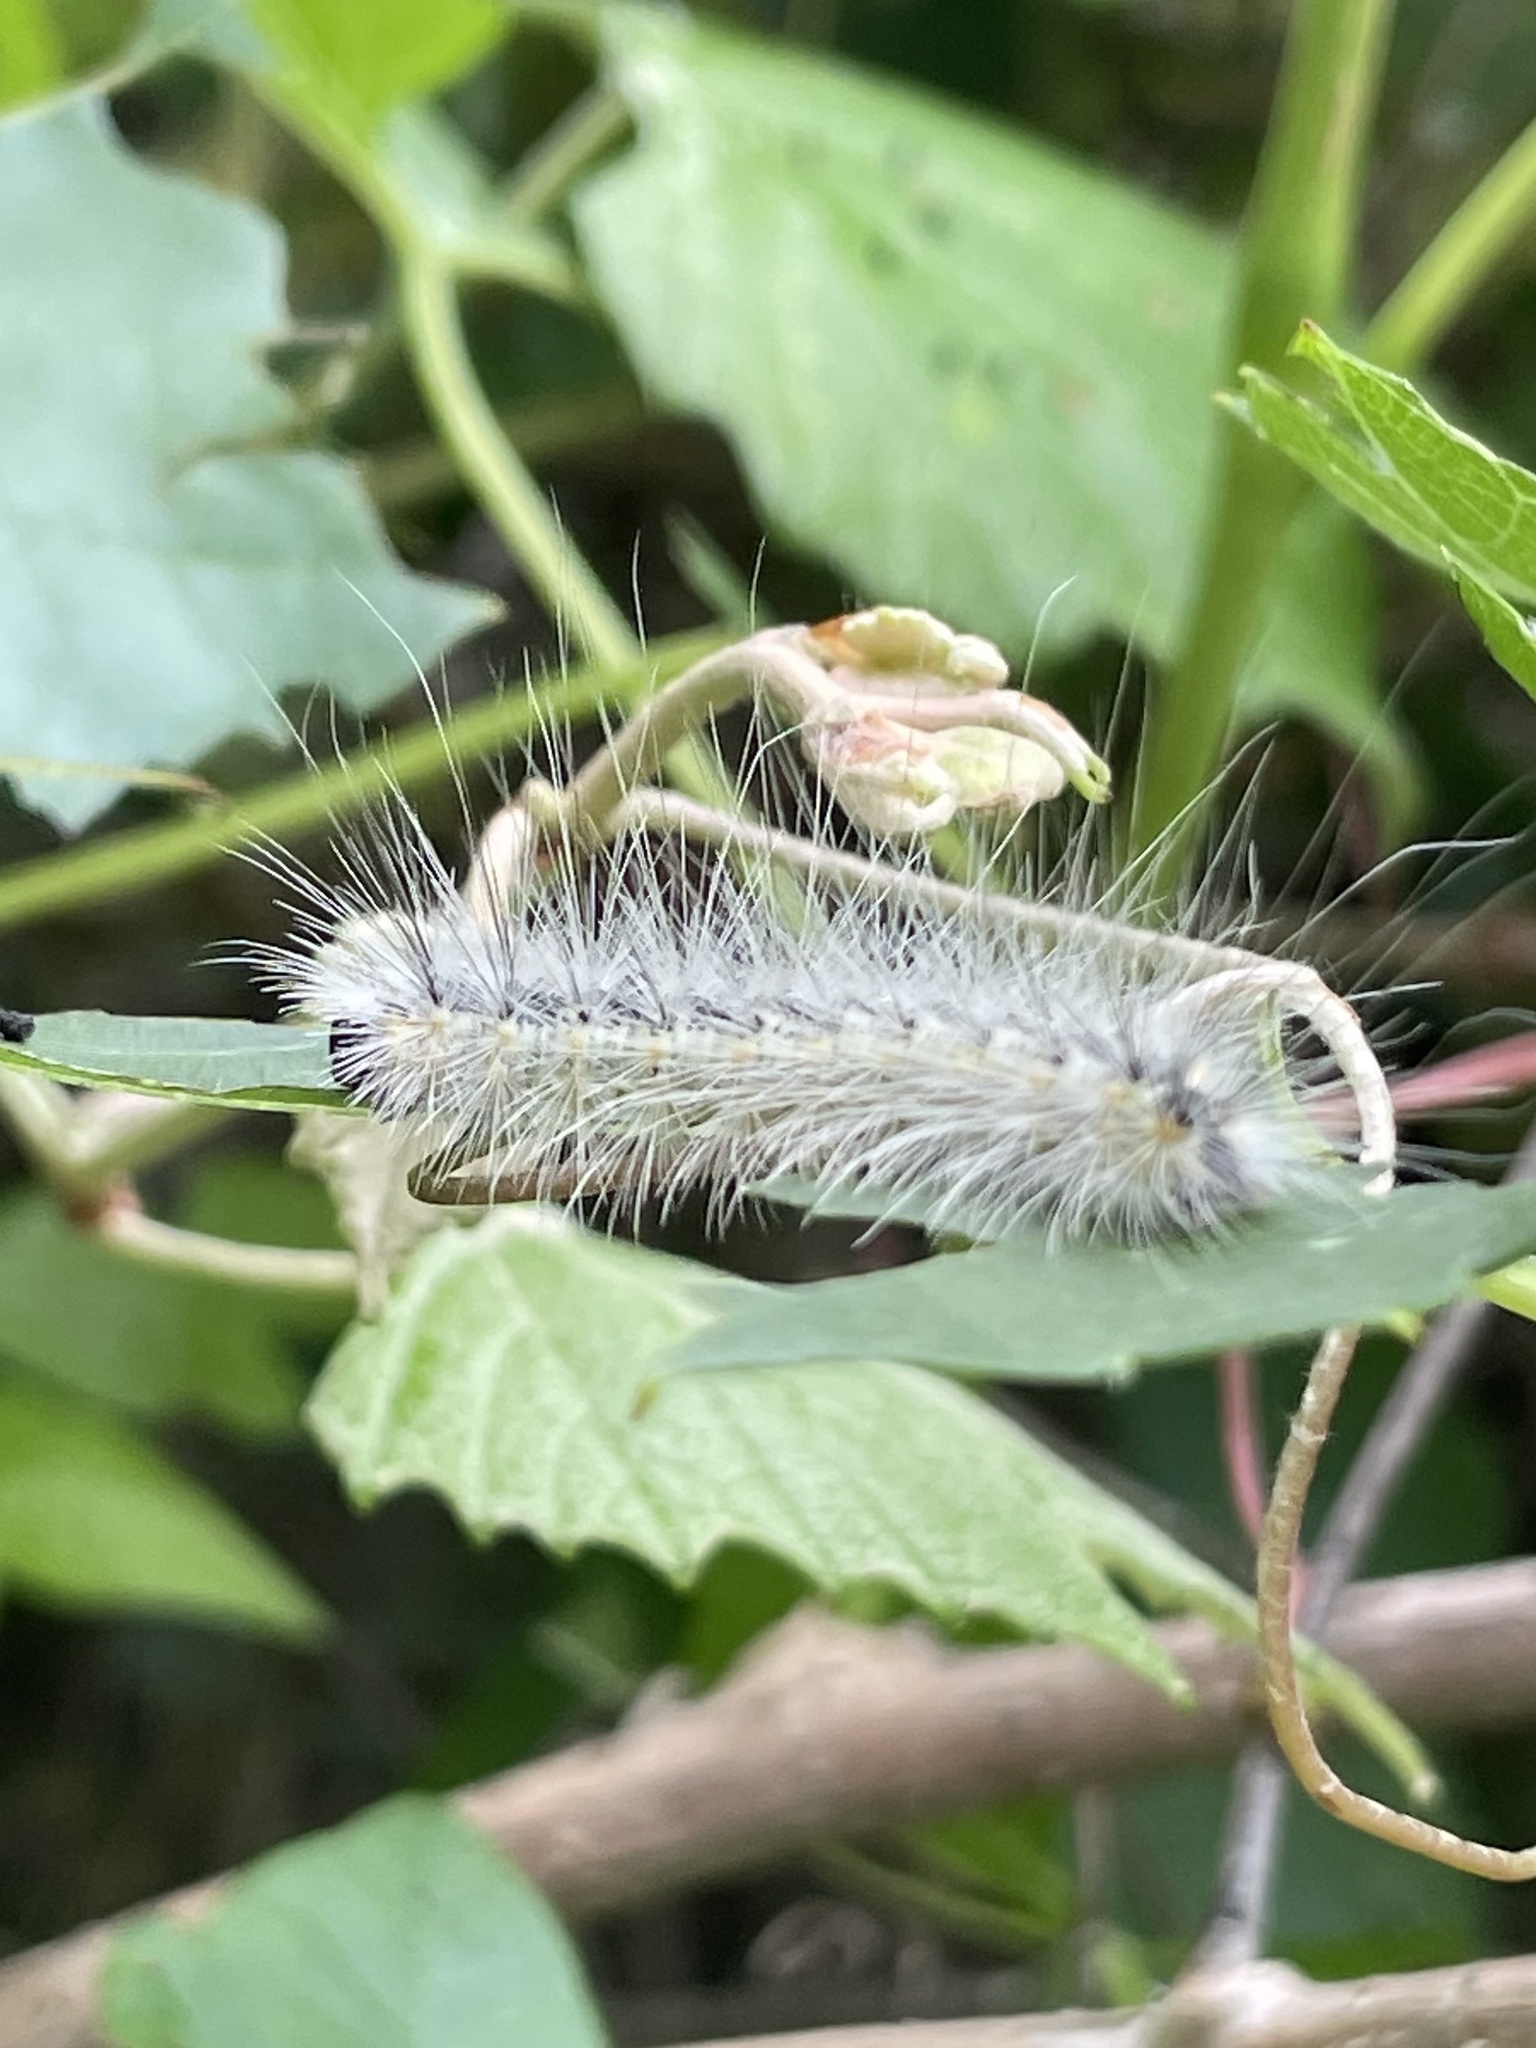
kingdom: Animalia
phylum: Arthropoda
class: Insecta
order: Lepidoptera
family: Erebidae
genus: Hyphantria
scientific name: Hyphantria cunea
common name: American white moth
